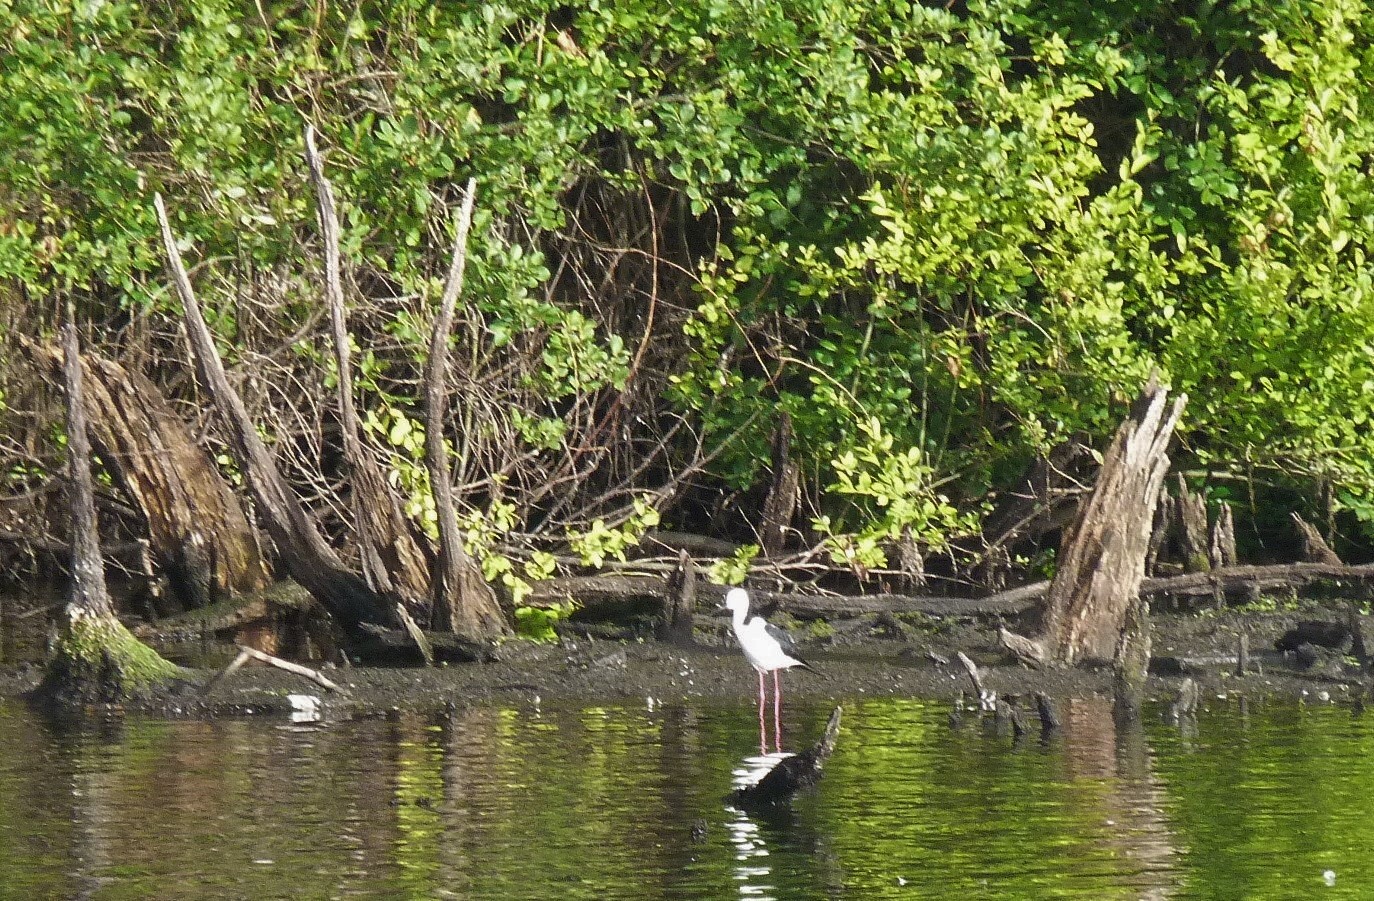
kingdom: Animalia
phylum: Chordata
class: Aves
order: Charadriiformes
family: Recurvirostridae
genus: Himantopus
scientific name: Himantopus leucocephalus
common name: White-headed stilt
